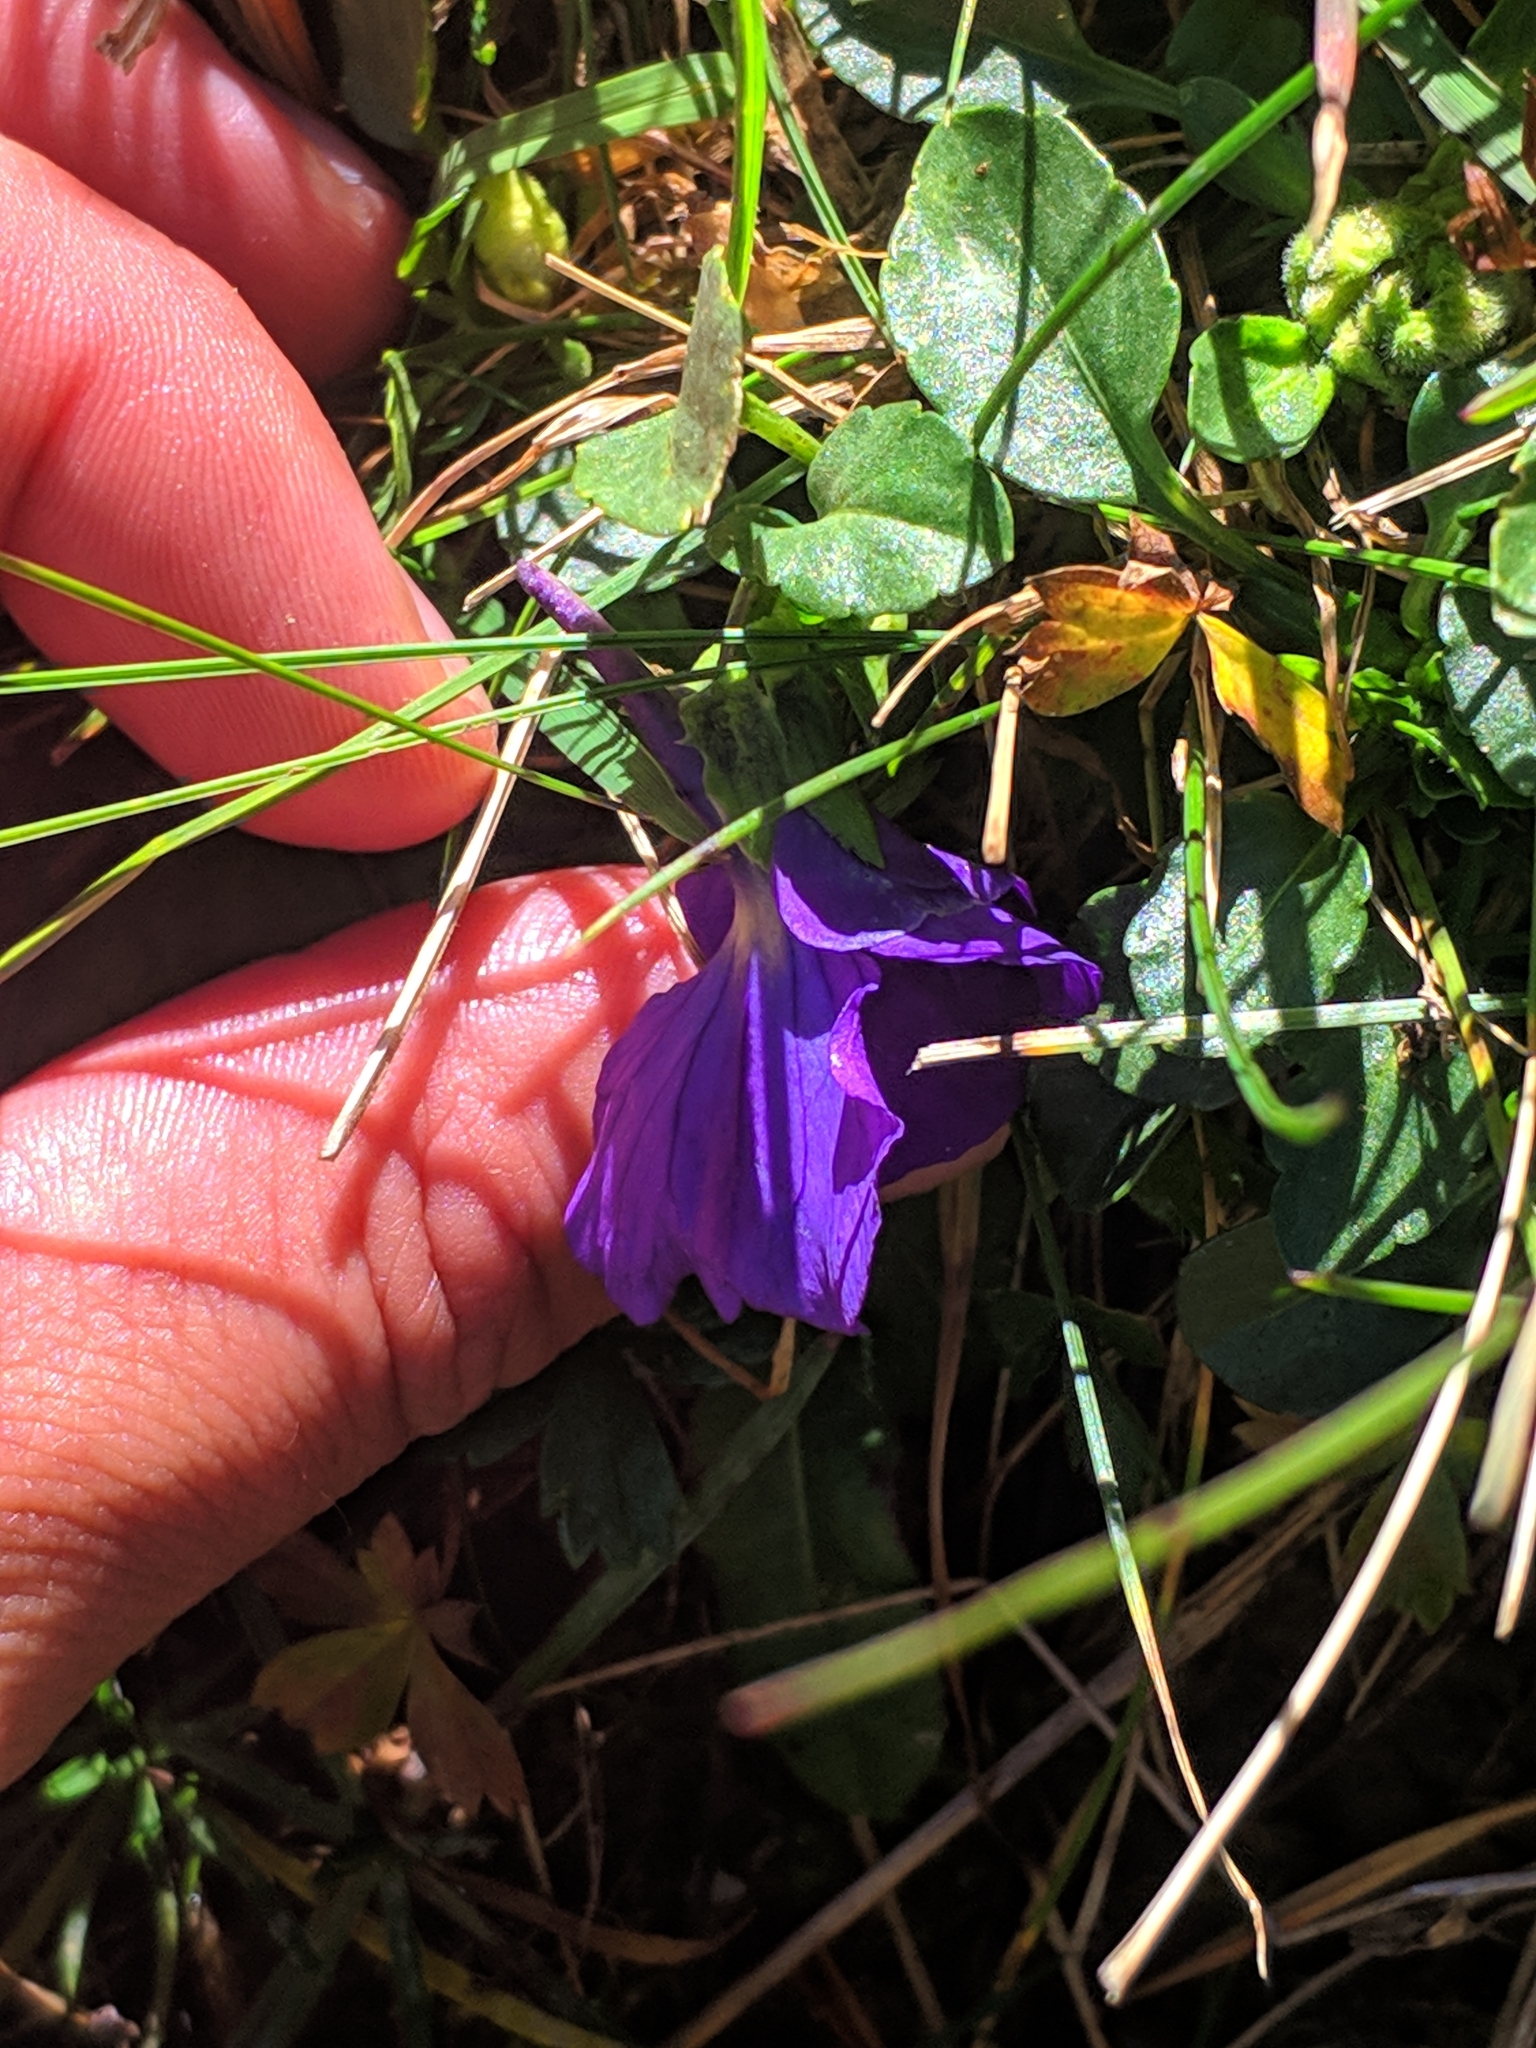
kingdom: Plantae
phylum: Tracheophyta
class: Magnoliopsida
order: Malpighiales
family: Violaceae
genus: Viola
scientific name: Viola calcarata
